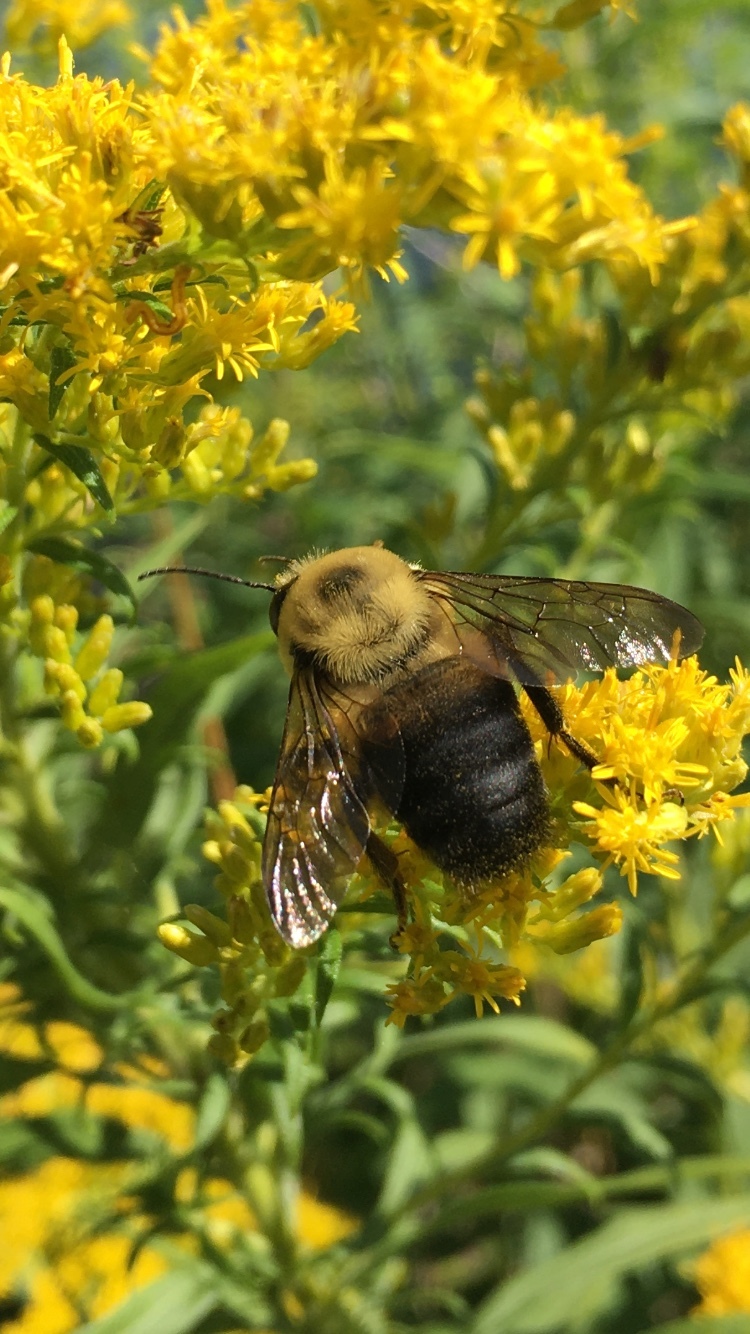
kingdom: Animalia
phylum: Arthropoda
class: Insecta
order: Hymenoptera
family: Apidae
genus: Bombus
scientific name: Bombus griseocollis
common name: Brown-belted bumble bee
